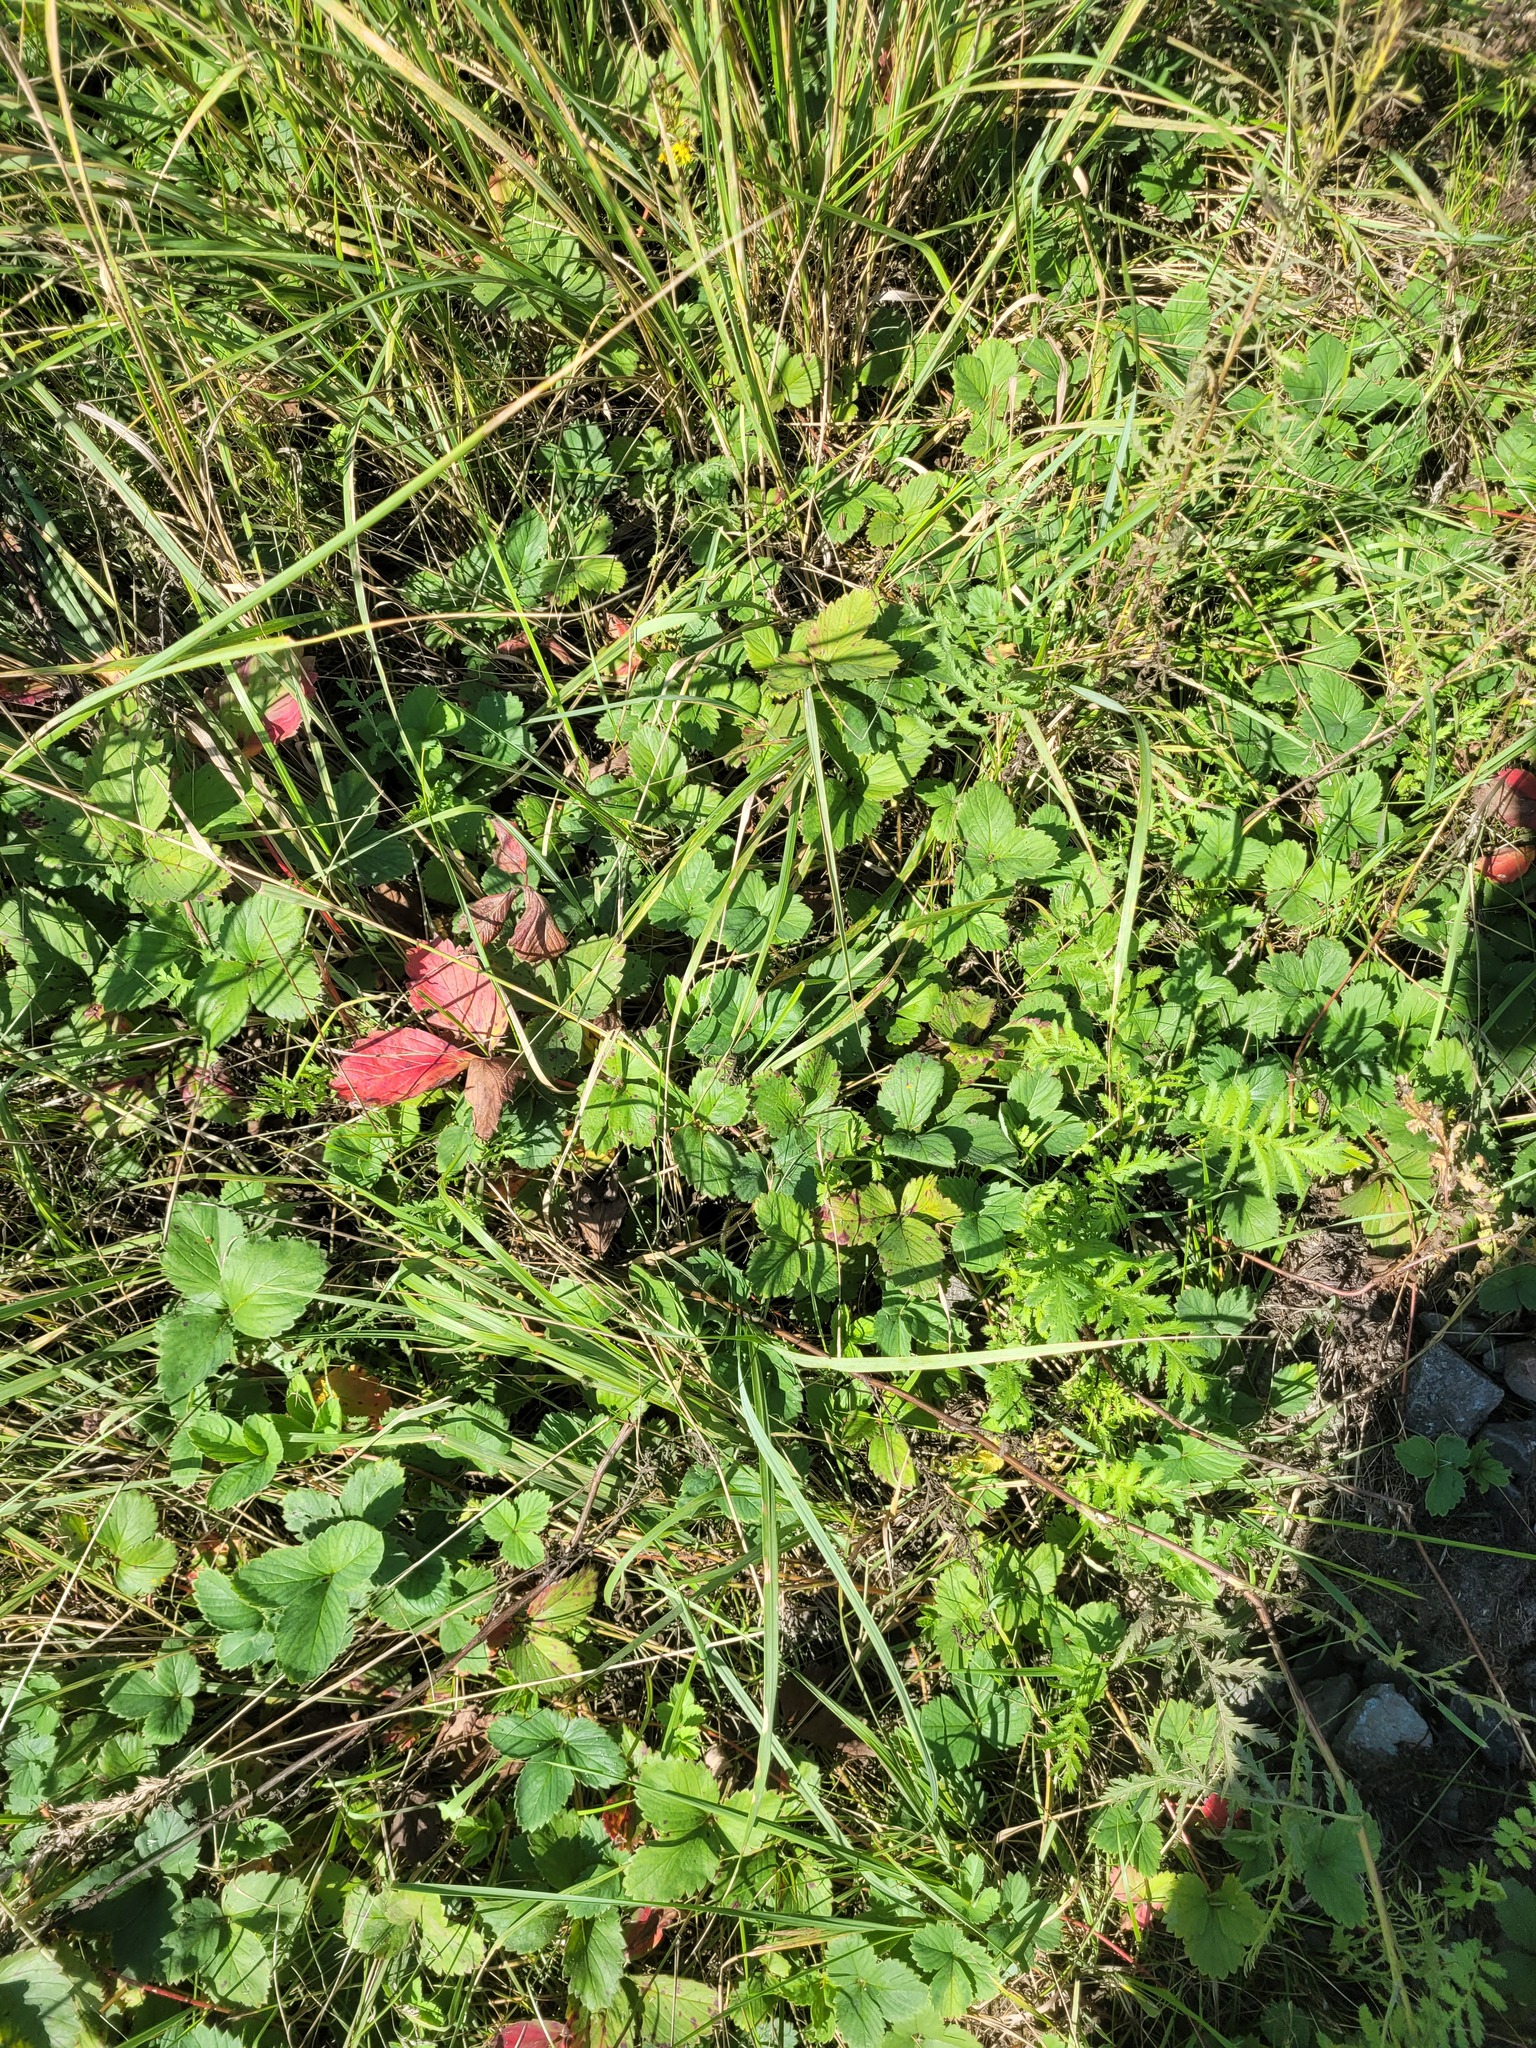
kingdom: Plantae
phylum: Tracheophyta
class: Magnoliopsida
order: Rosales
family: Rosaceae
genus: Fragaria
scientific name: Fragaria ananassa
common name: Garden strawberry
